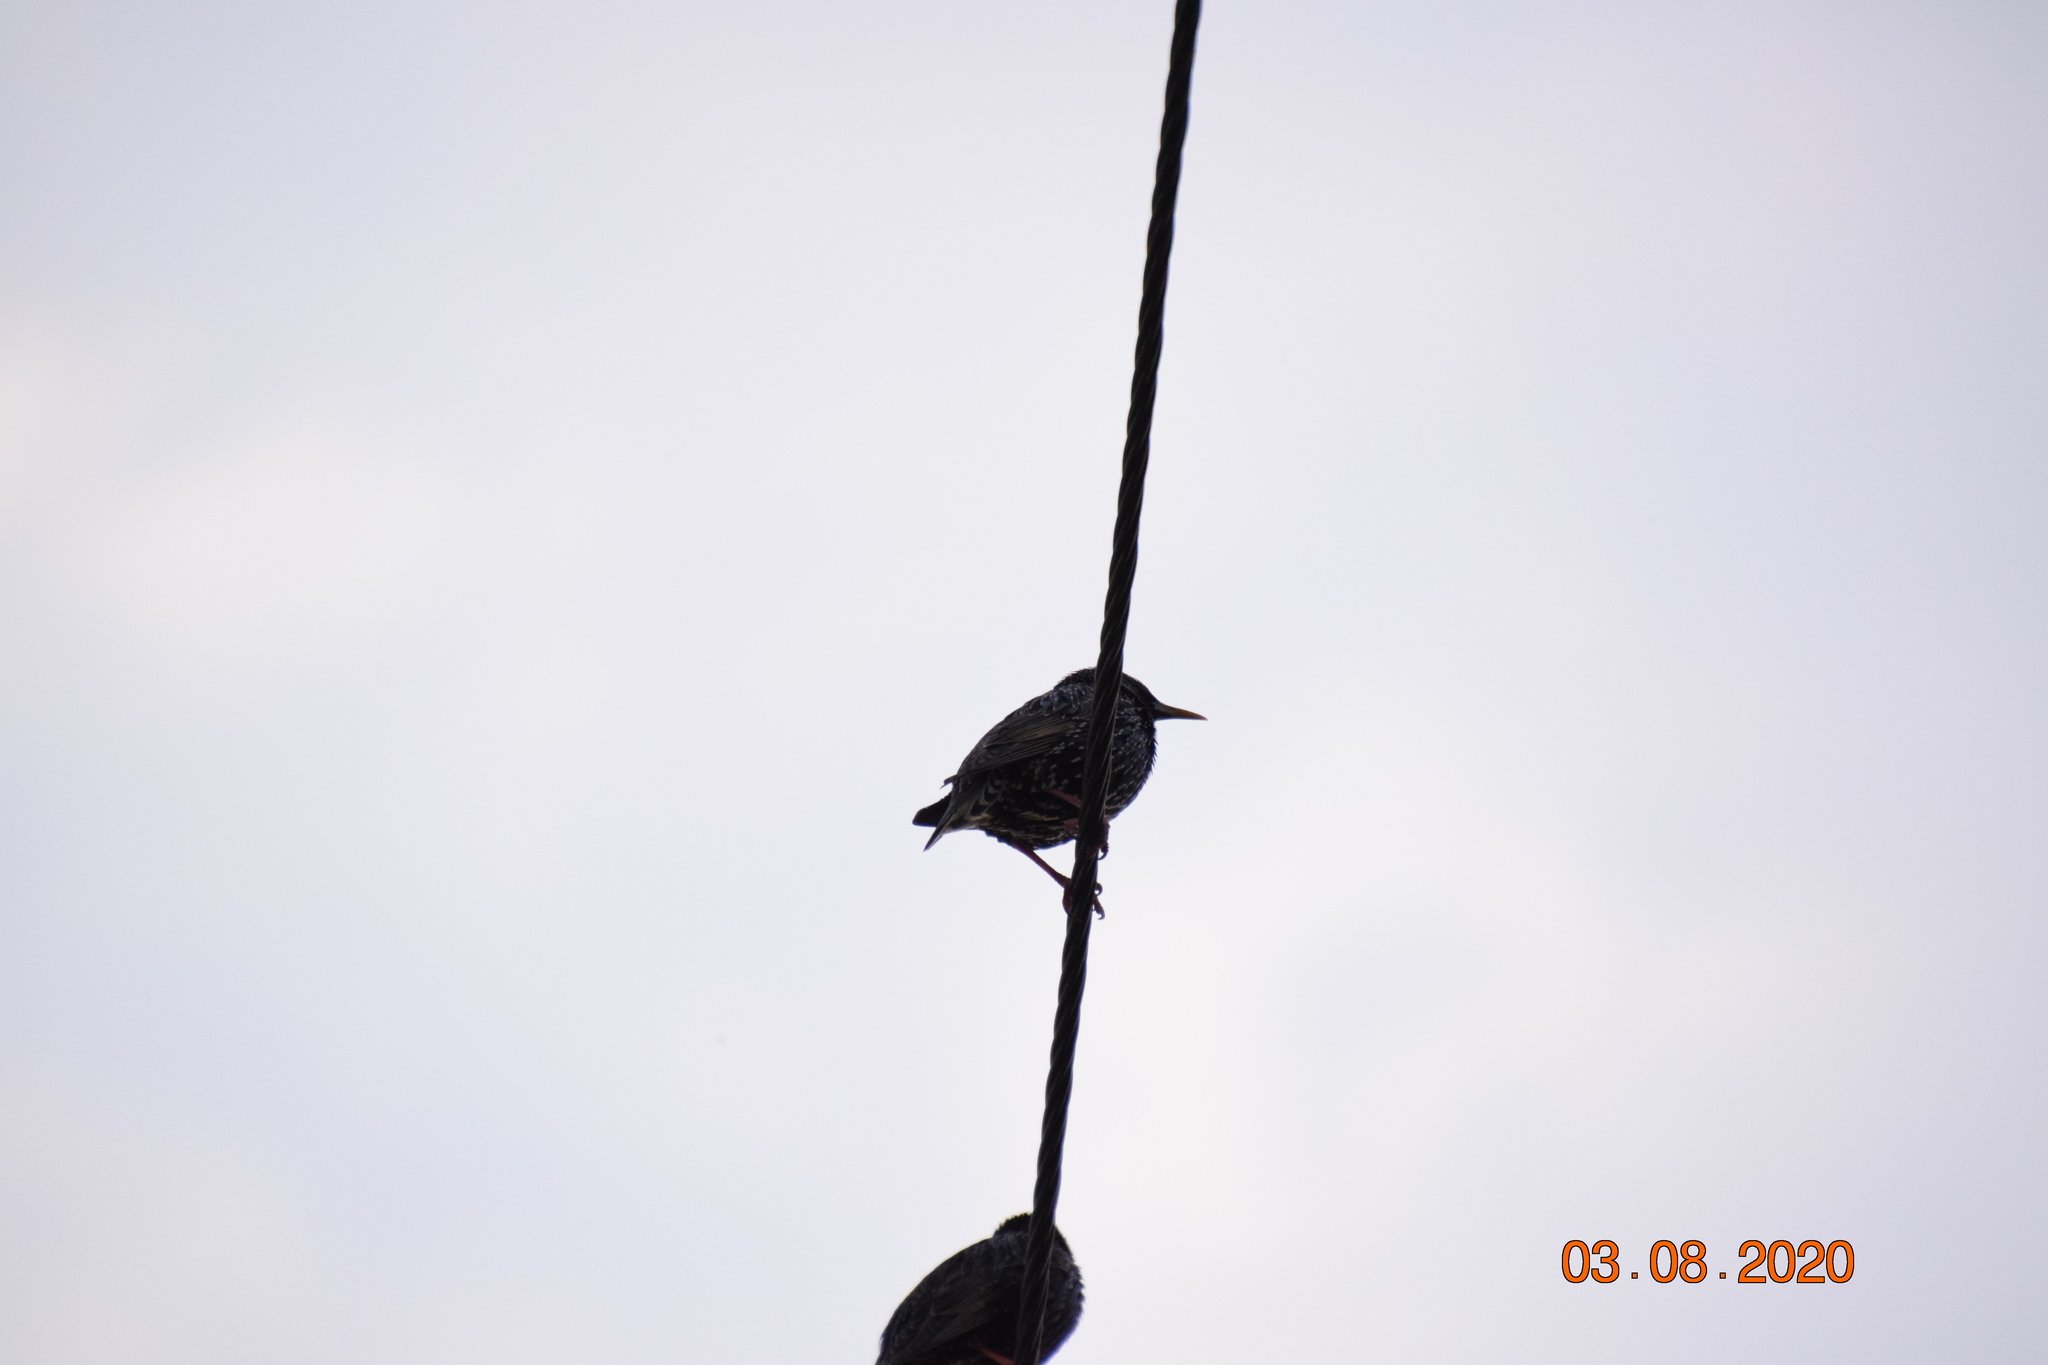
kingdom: Animalia
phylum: Chordata
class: Aves
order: Passeriformes
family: Sturnidae
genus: Sturnus
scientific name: Sturnus vulgaris
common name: Common starling
